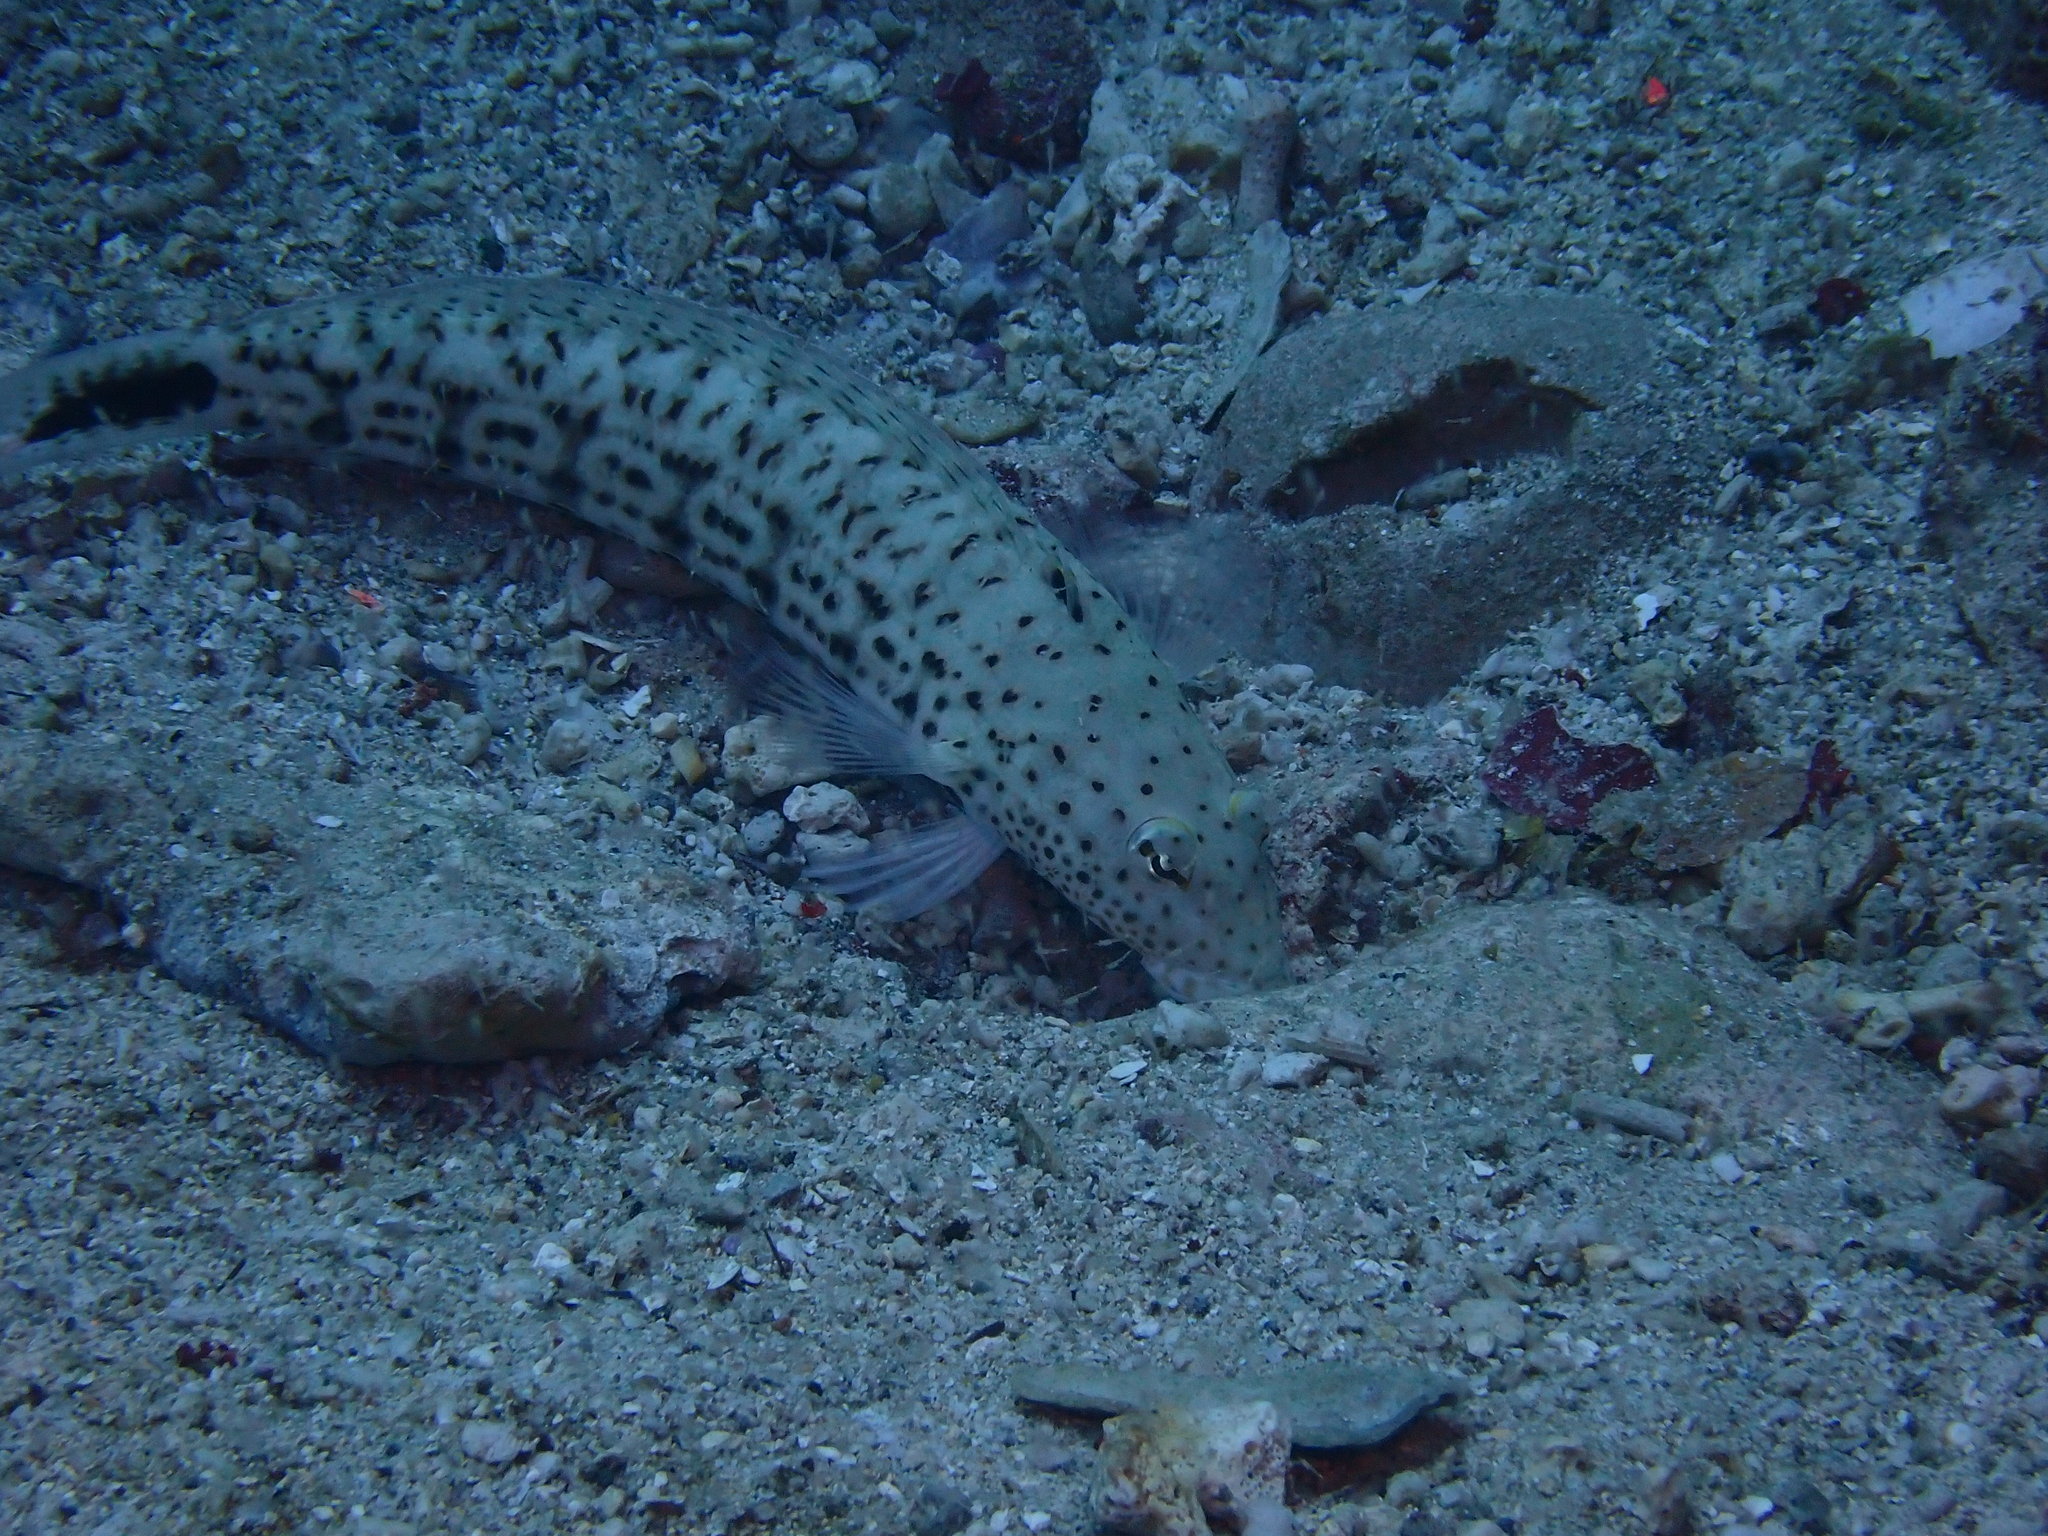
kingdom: Animalia
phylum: Chordata
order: Perciformes
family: Pinguipedidae
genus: Parapercis
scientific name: Parapercis pacifica
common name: Speckled sandperch
